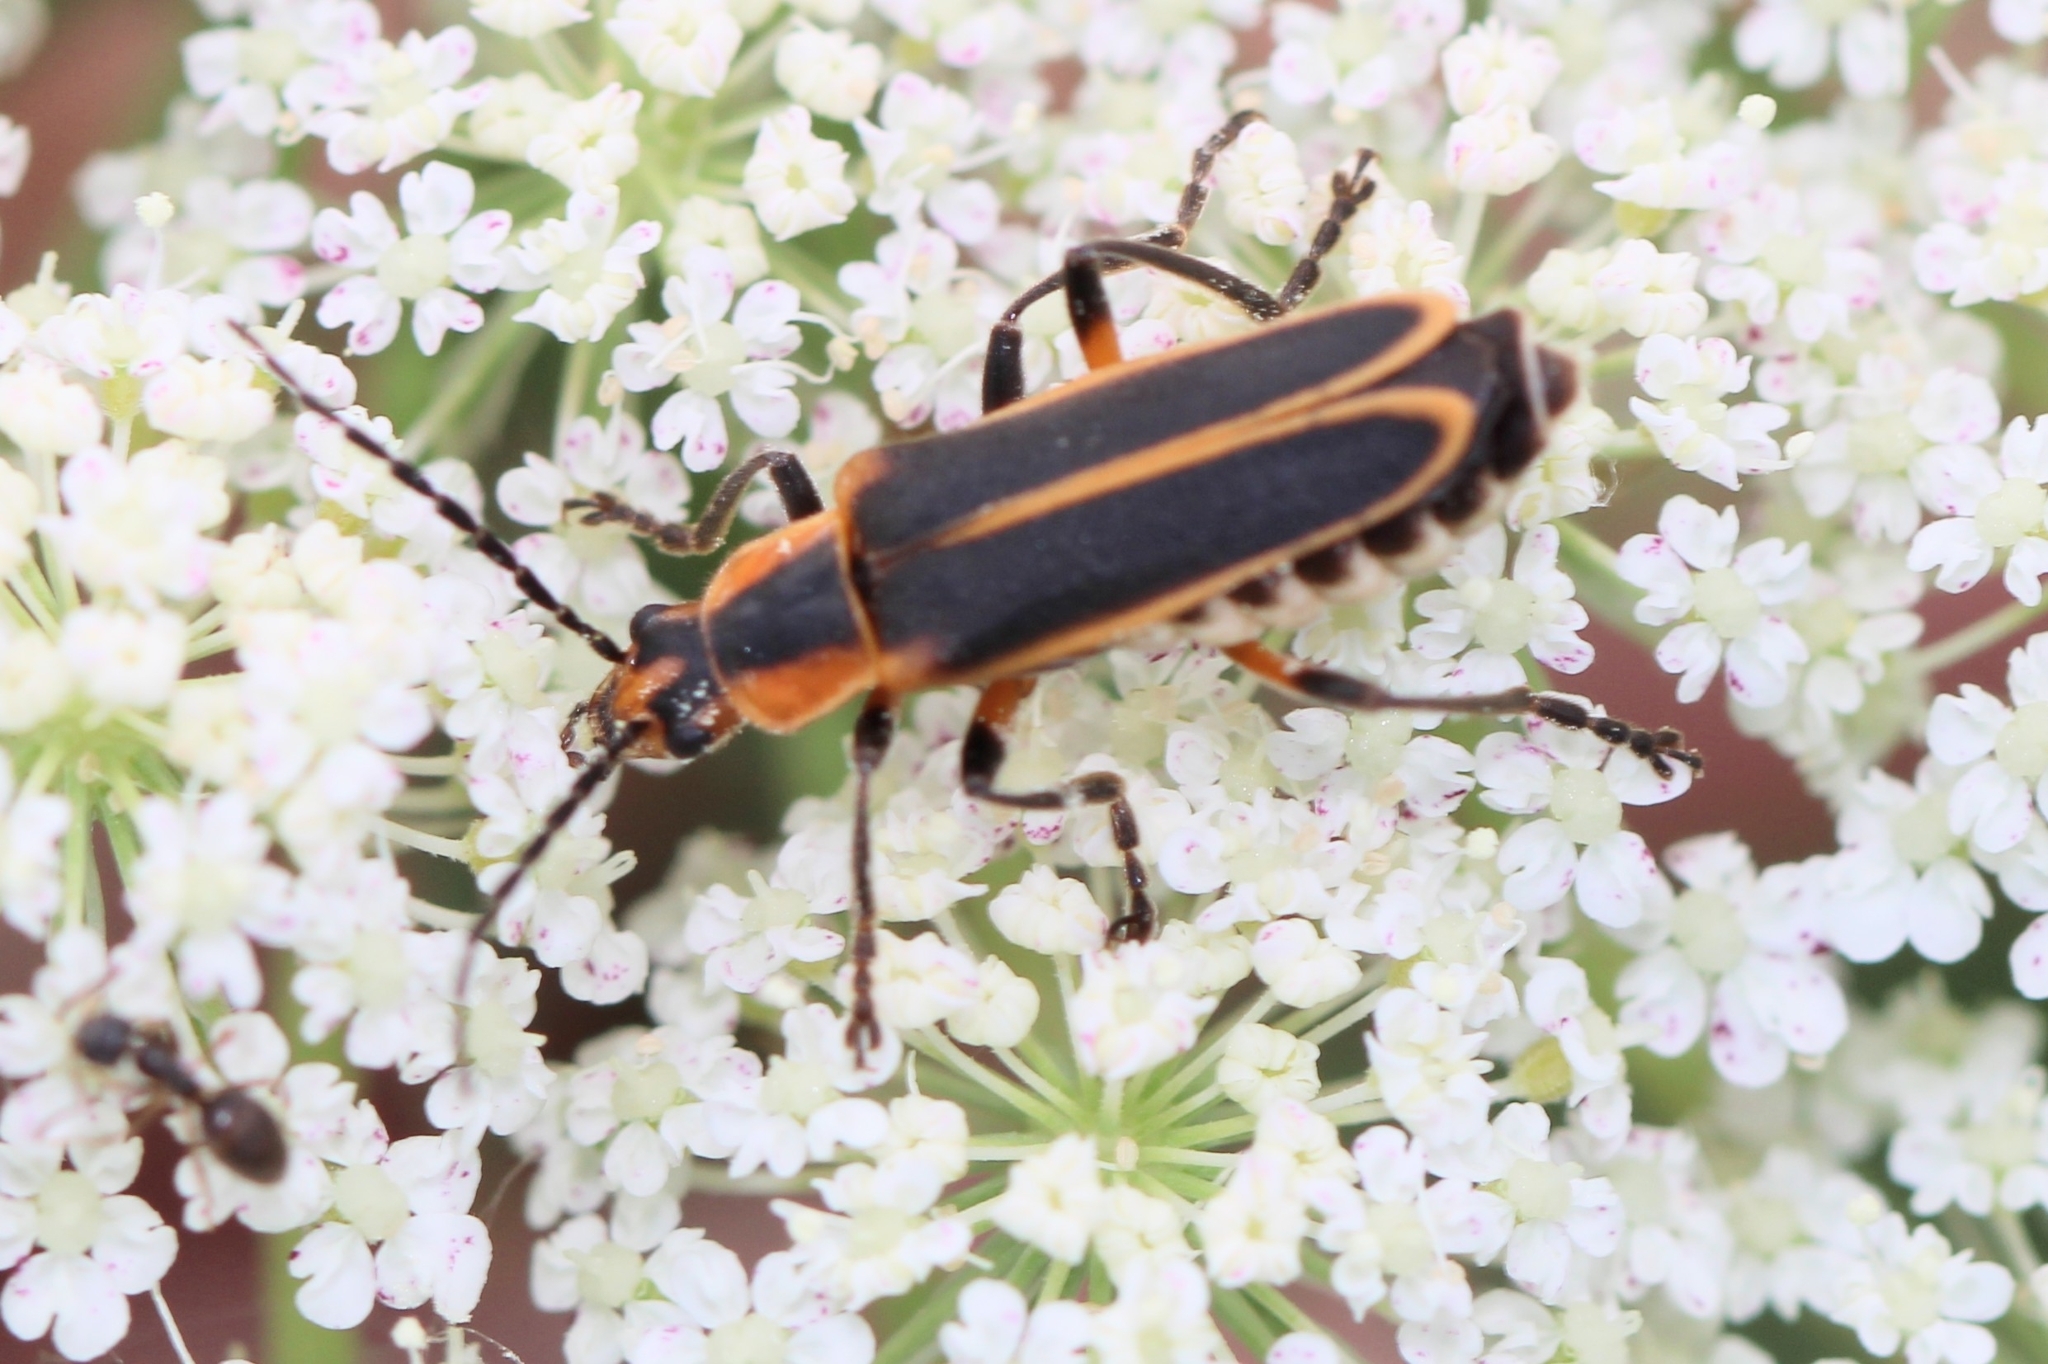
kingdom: Animalia
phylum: Arthropoda
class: Insecta
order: Coleoptera
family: Cantharidae
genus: Chauliognathus
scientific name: Chauliognathus marginatus
